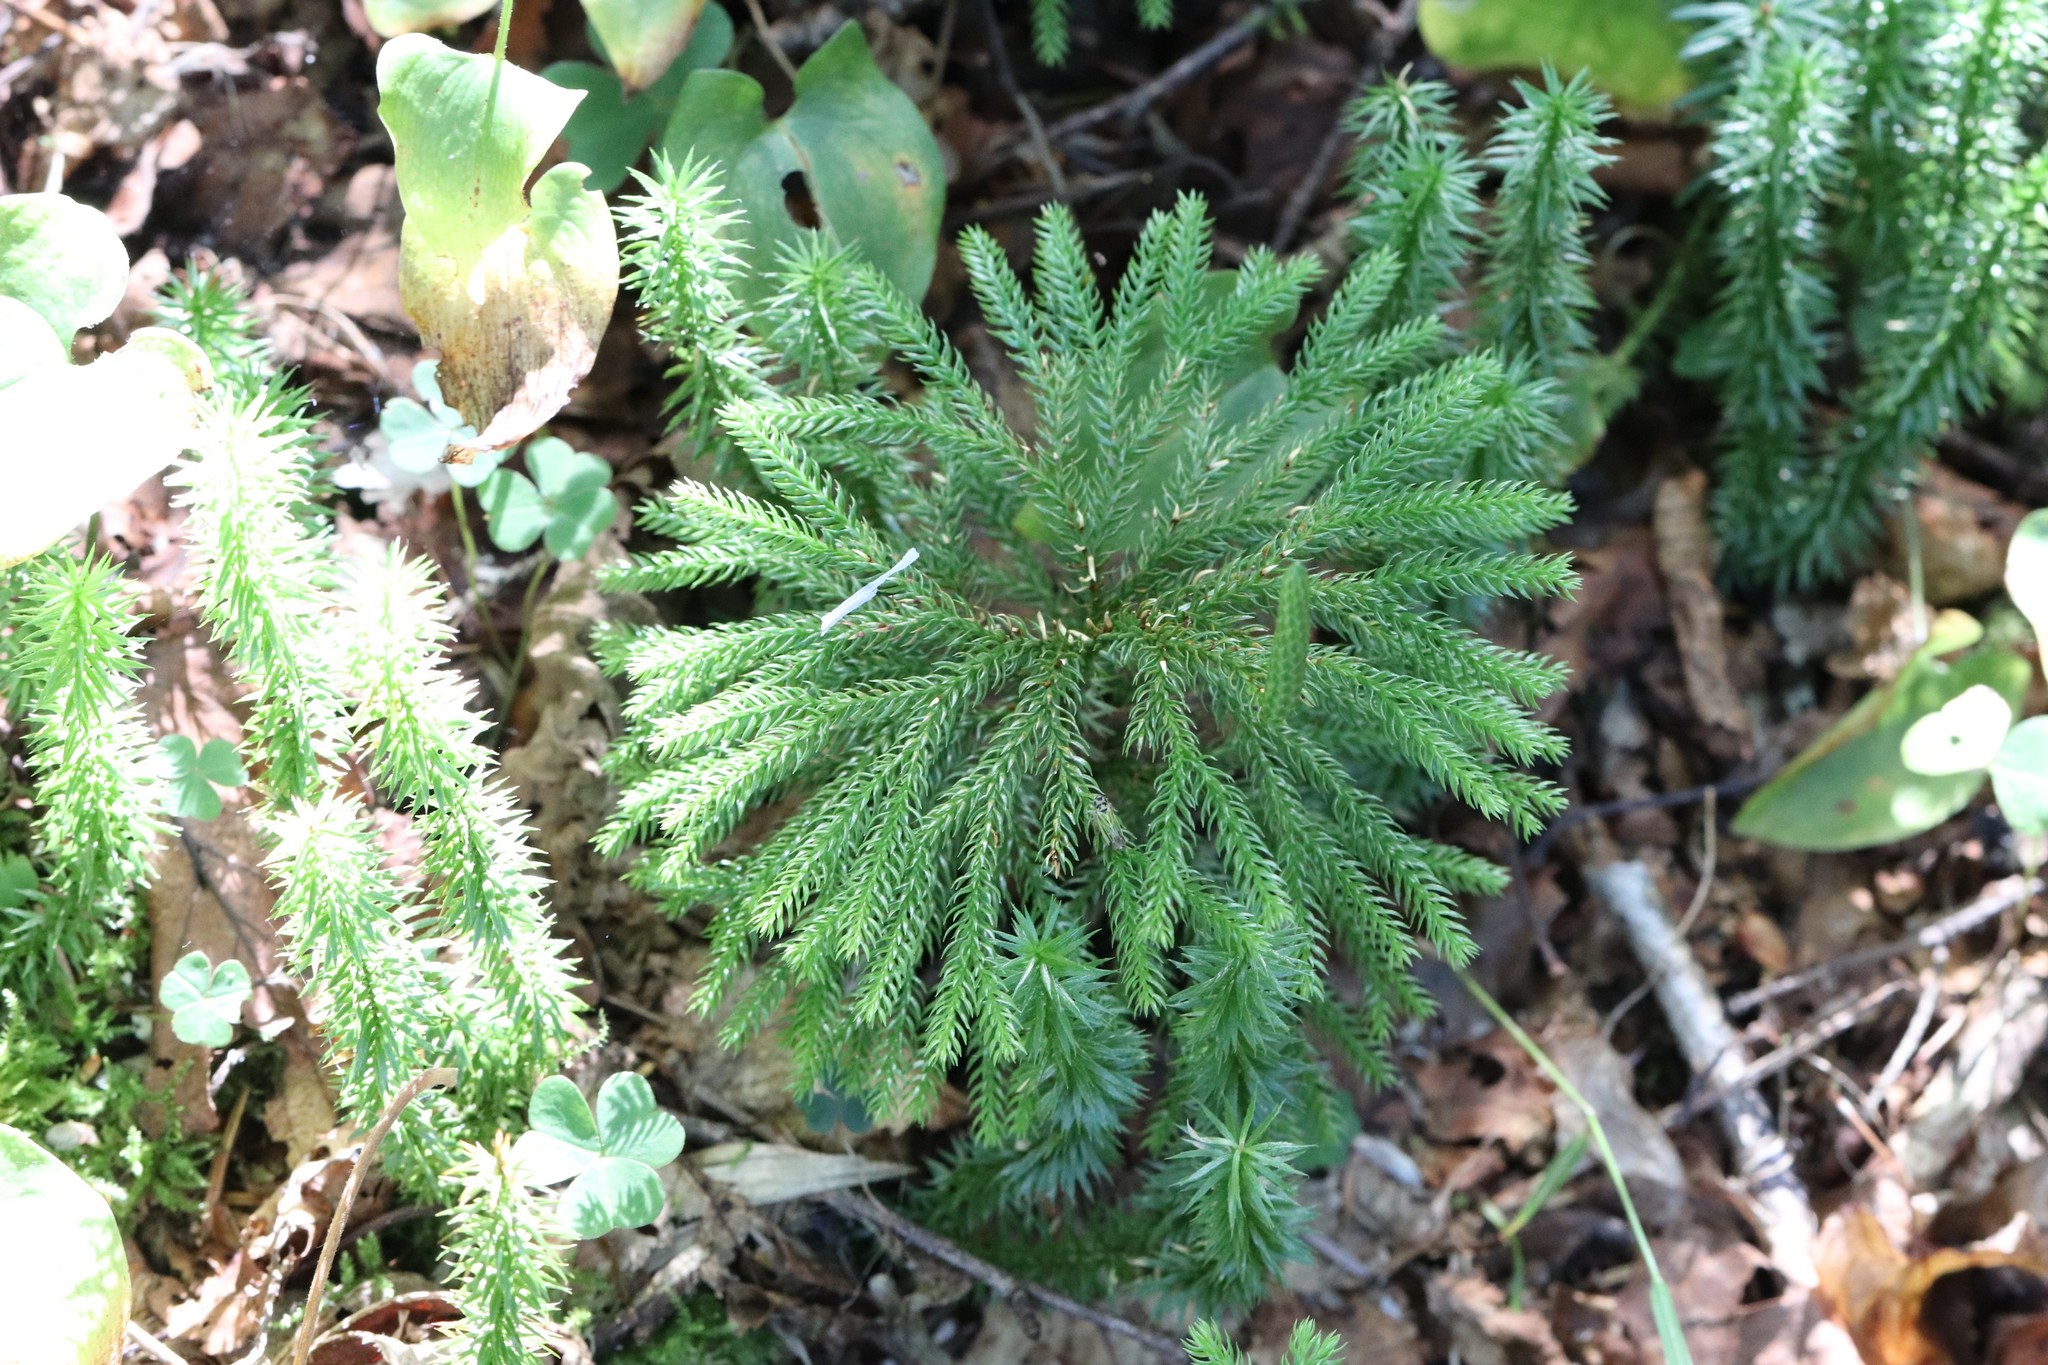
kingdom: Plantae
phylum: Tracheophyta
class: Lycopodiopsida
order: Lycopodiales
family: Lycopodiaceae
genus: Dendrolycopodium
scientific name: Dendrolycopodium obscurum
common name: Common ground-pine
